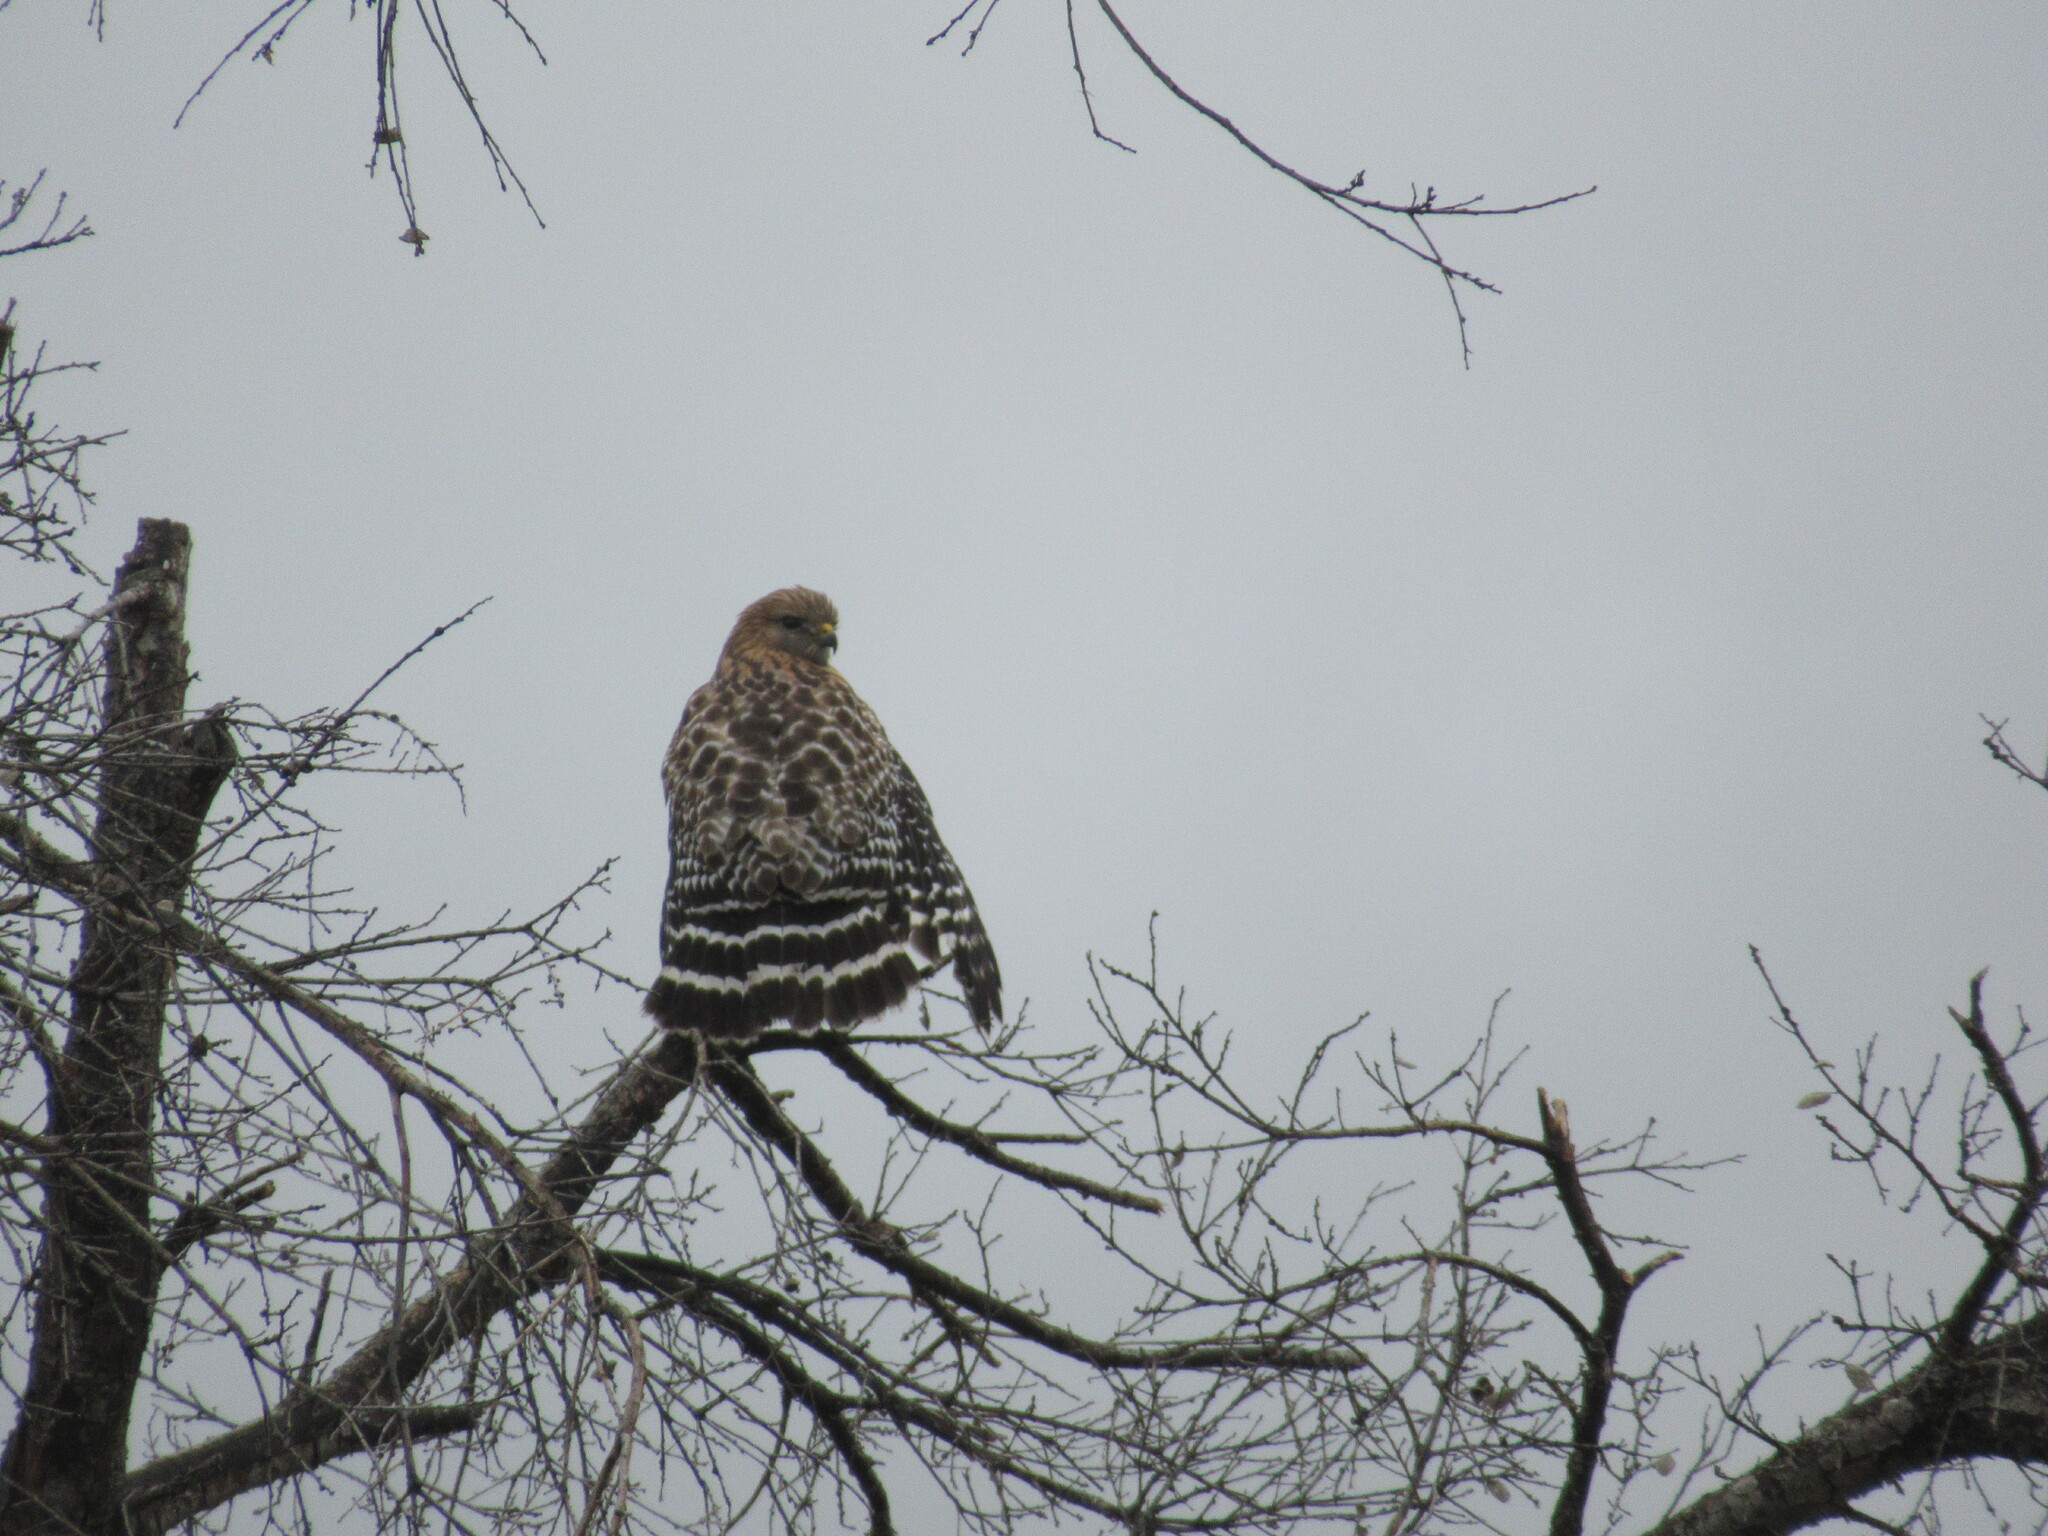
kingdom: Animalia
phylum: Chordata
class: Aves
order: Accipitriformes
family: Accipitridae
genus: Buteo
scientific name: Buteo lineatus
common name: Red-shouldered hawk
